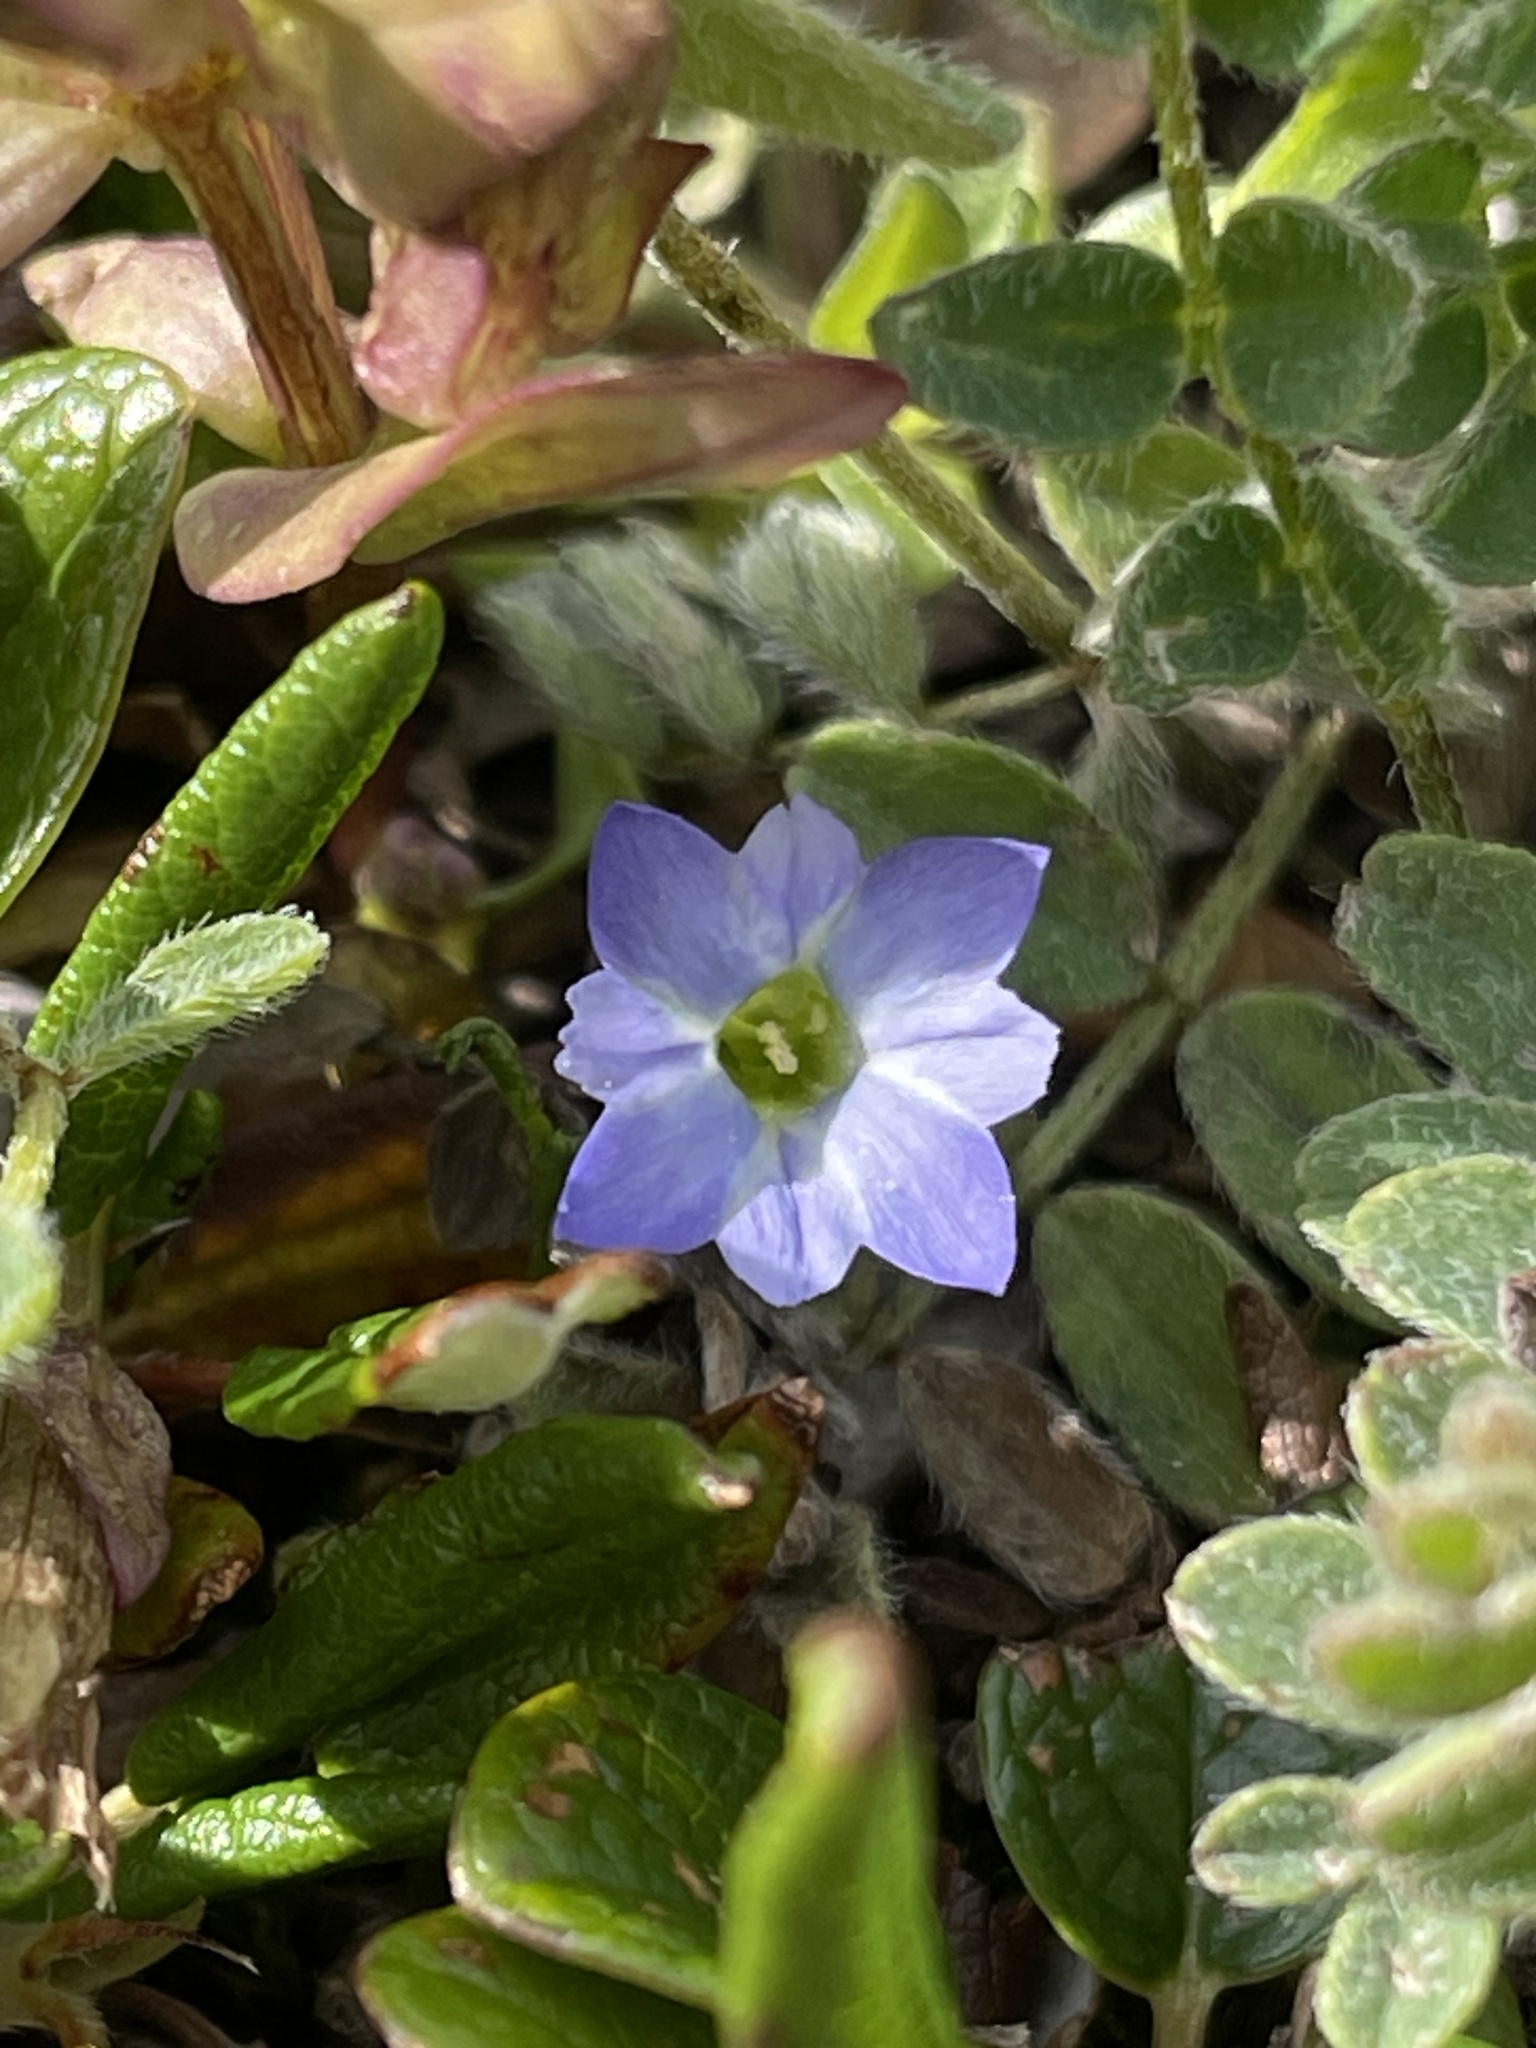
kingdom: Plantae
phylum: Tracheophyta
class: Magnoliopsida
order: Gentianales
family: Gentianaceae
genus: Gentiana
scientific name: Gentiana prostrata
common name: Moss gentian
